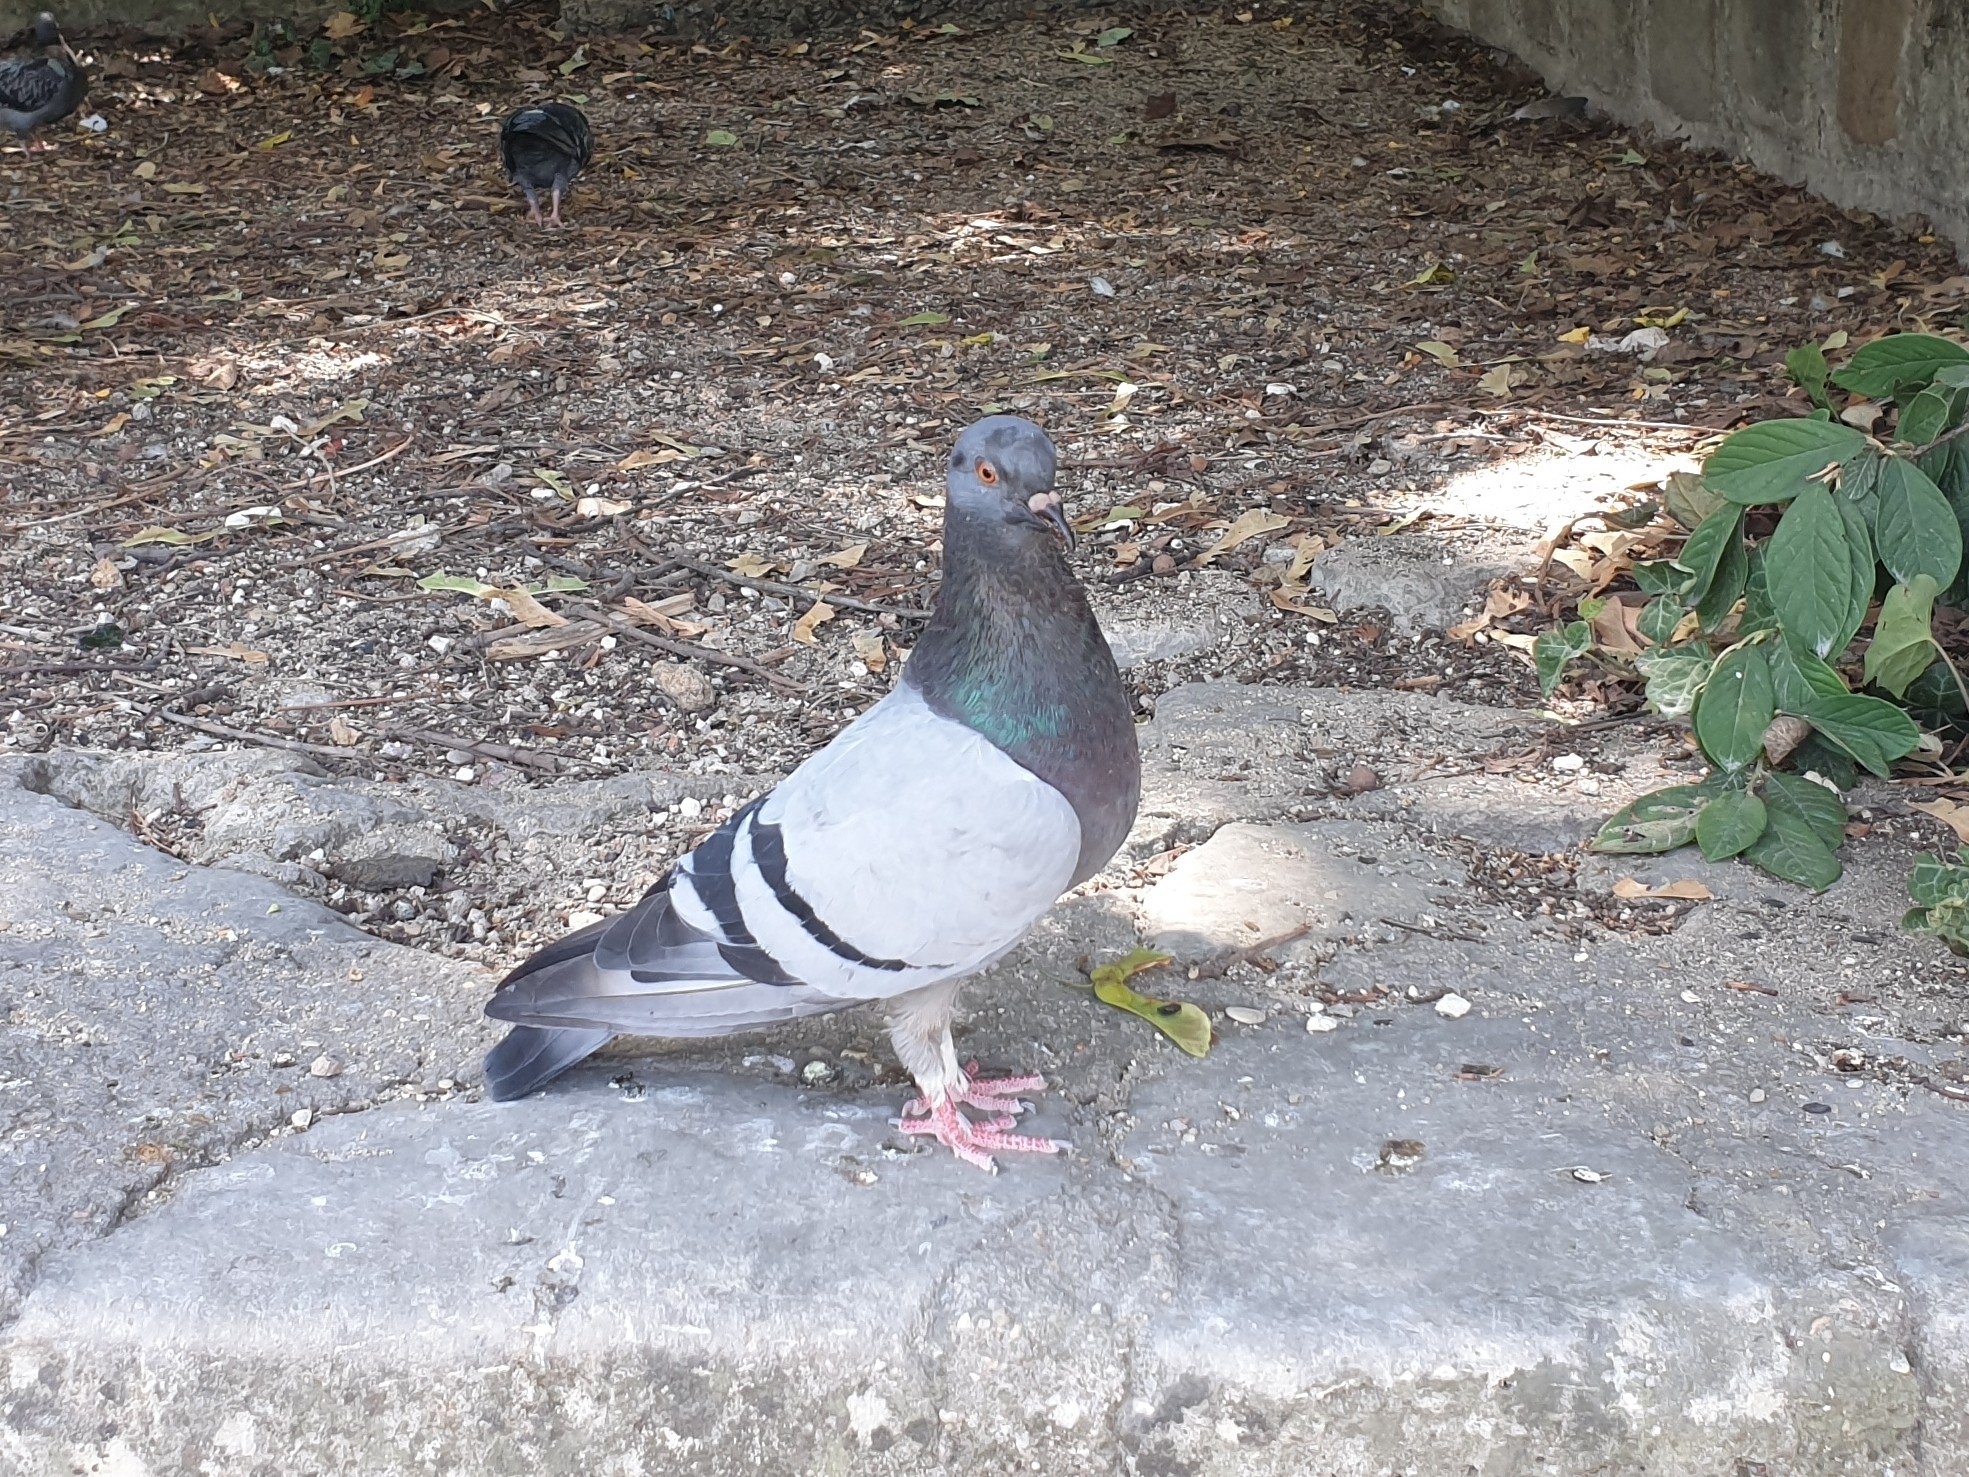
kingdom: Animalia
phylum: Chordata
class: Aves
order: Columbiformes
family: Columbidae
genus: Columba
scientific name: Columba livia
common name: Rock pigeon
